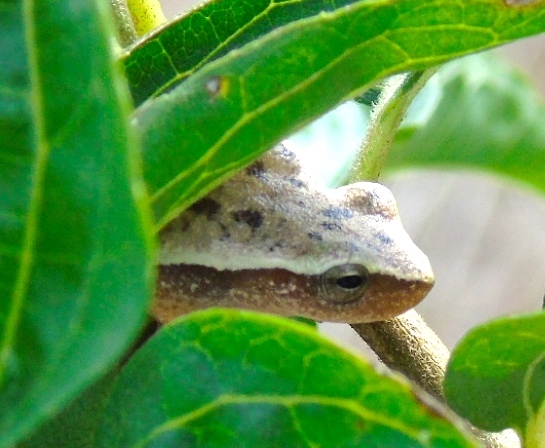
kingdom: Animalia
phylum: Chordata
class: Amphibia
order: Anura
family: Hylidae
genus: Tlalocohyla
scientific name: Tlalocohyla smithii
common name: Dwarf mexican treefrog
